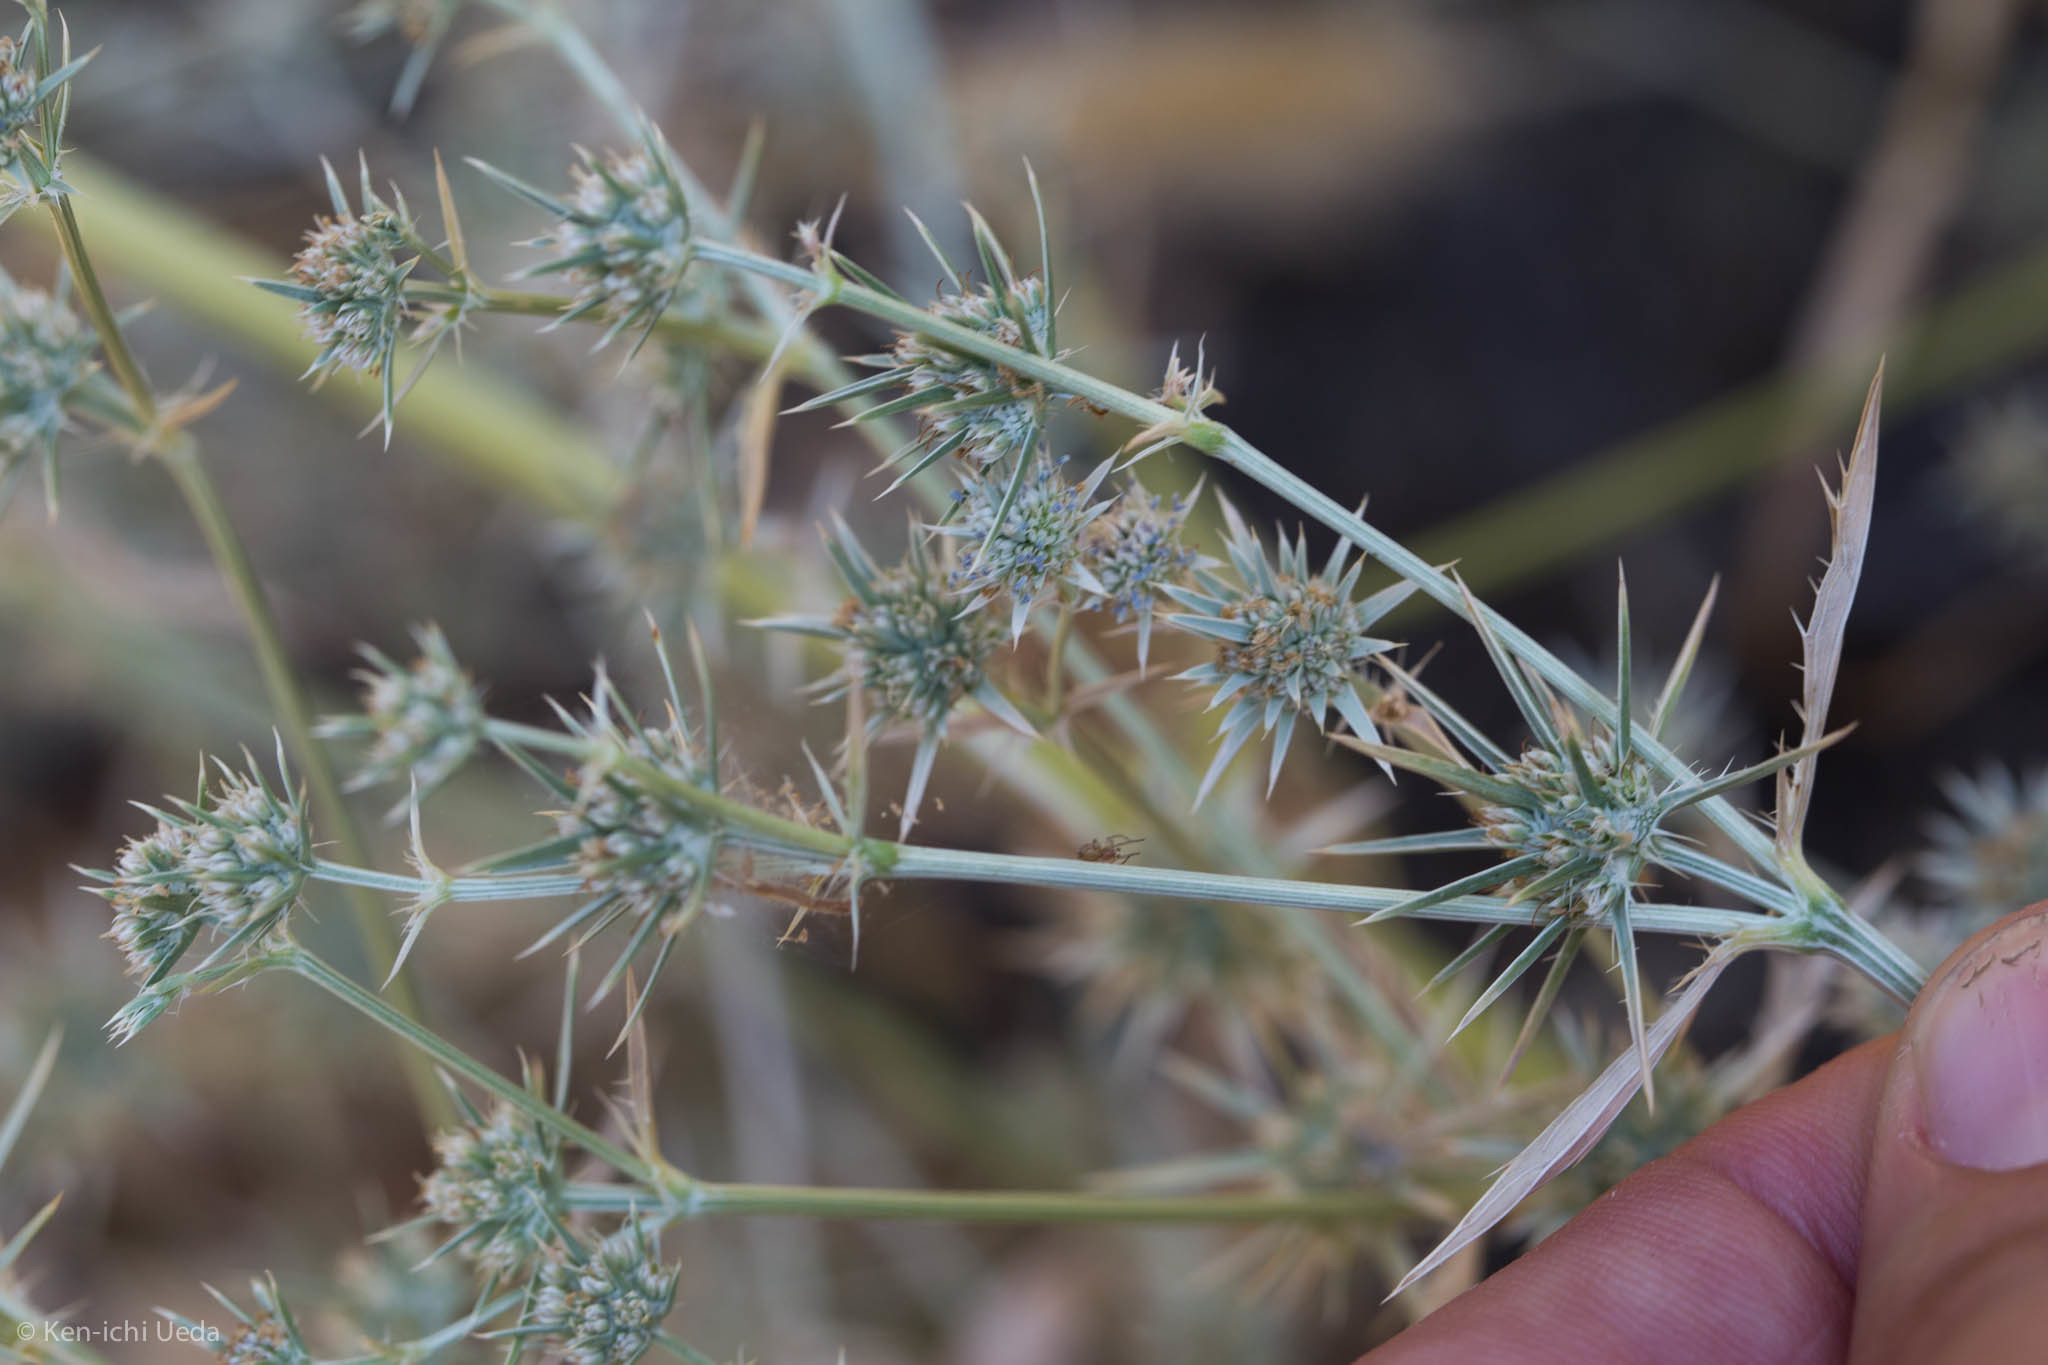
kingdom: Plantae
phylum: Tracheophyta
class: Magnoliopsida
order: Apiales
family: Apiaceae
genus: Eryngium
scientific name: Eryngium aristulatum
